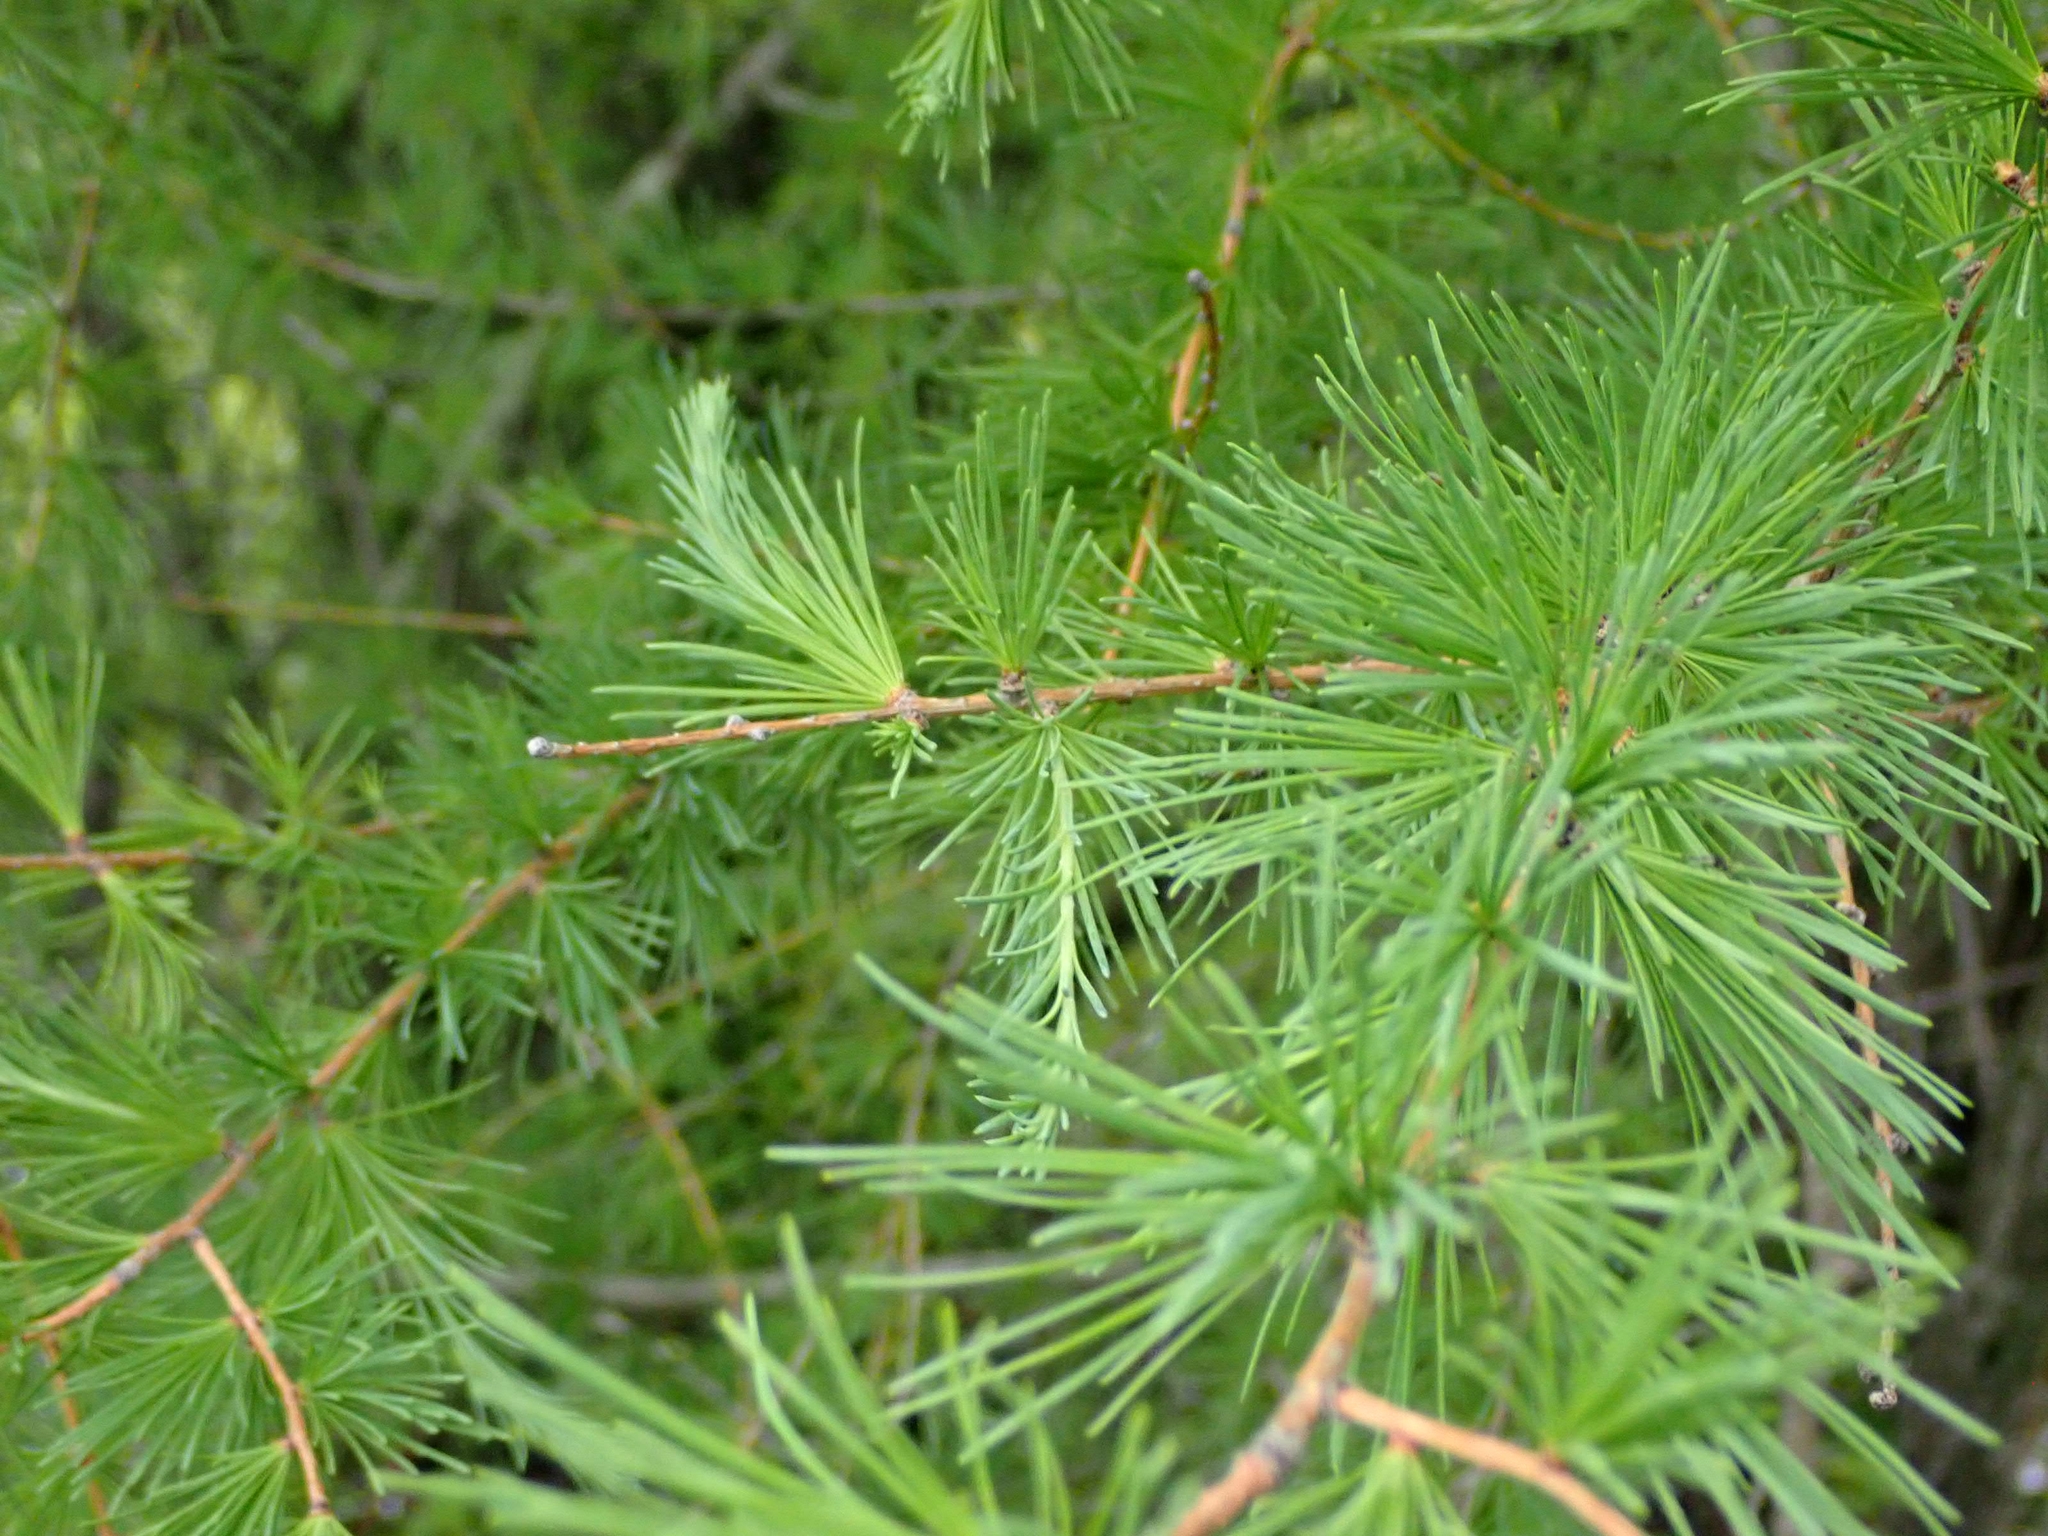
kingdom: Plantae
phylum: Tracheophyta
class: Pinopsida
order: Pinales
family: Pinaceae
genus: Larix
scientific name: Larix laricina
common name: American larch
